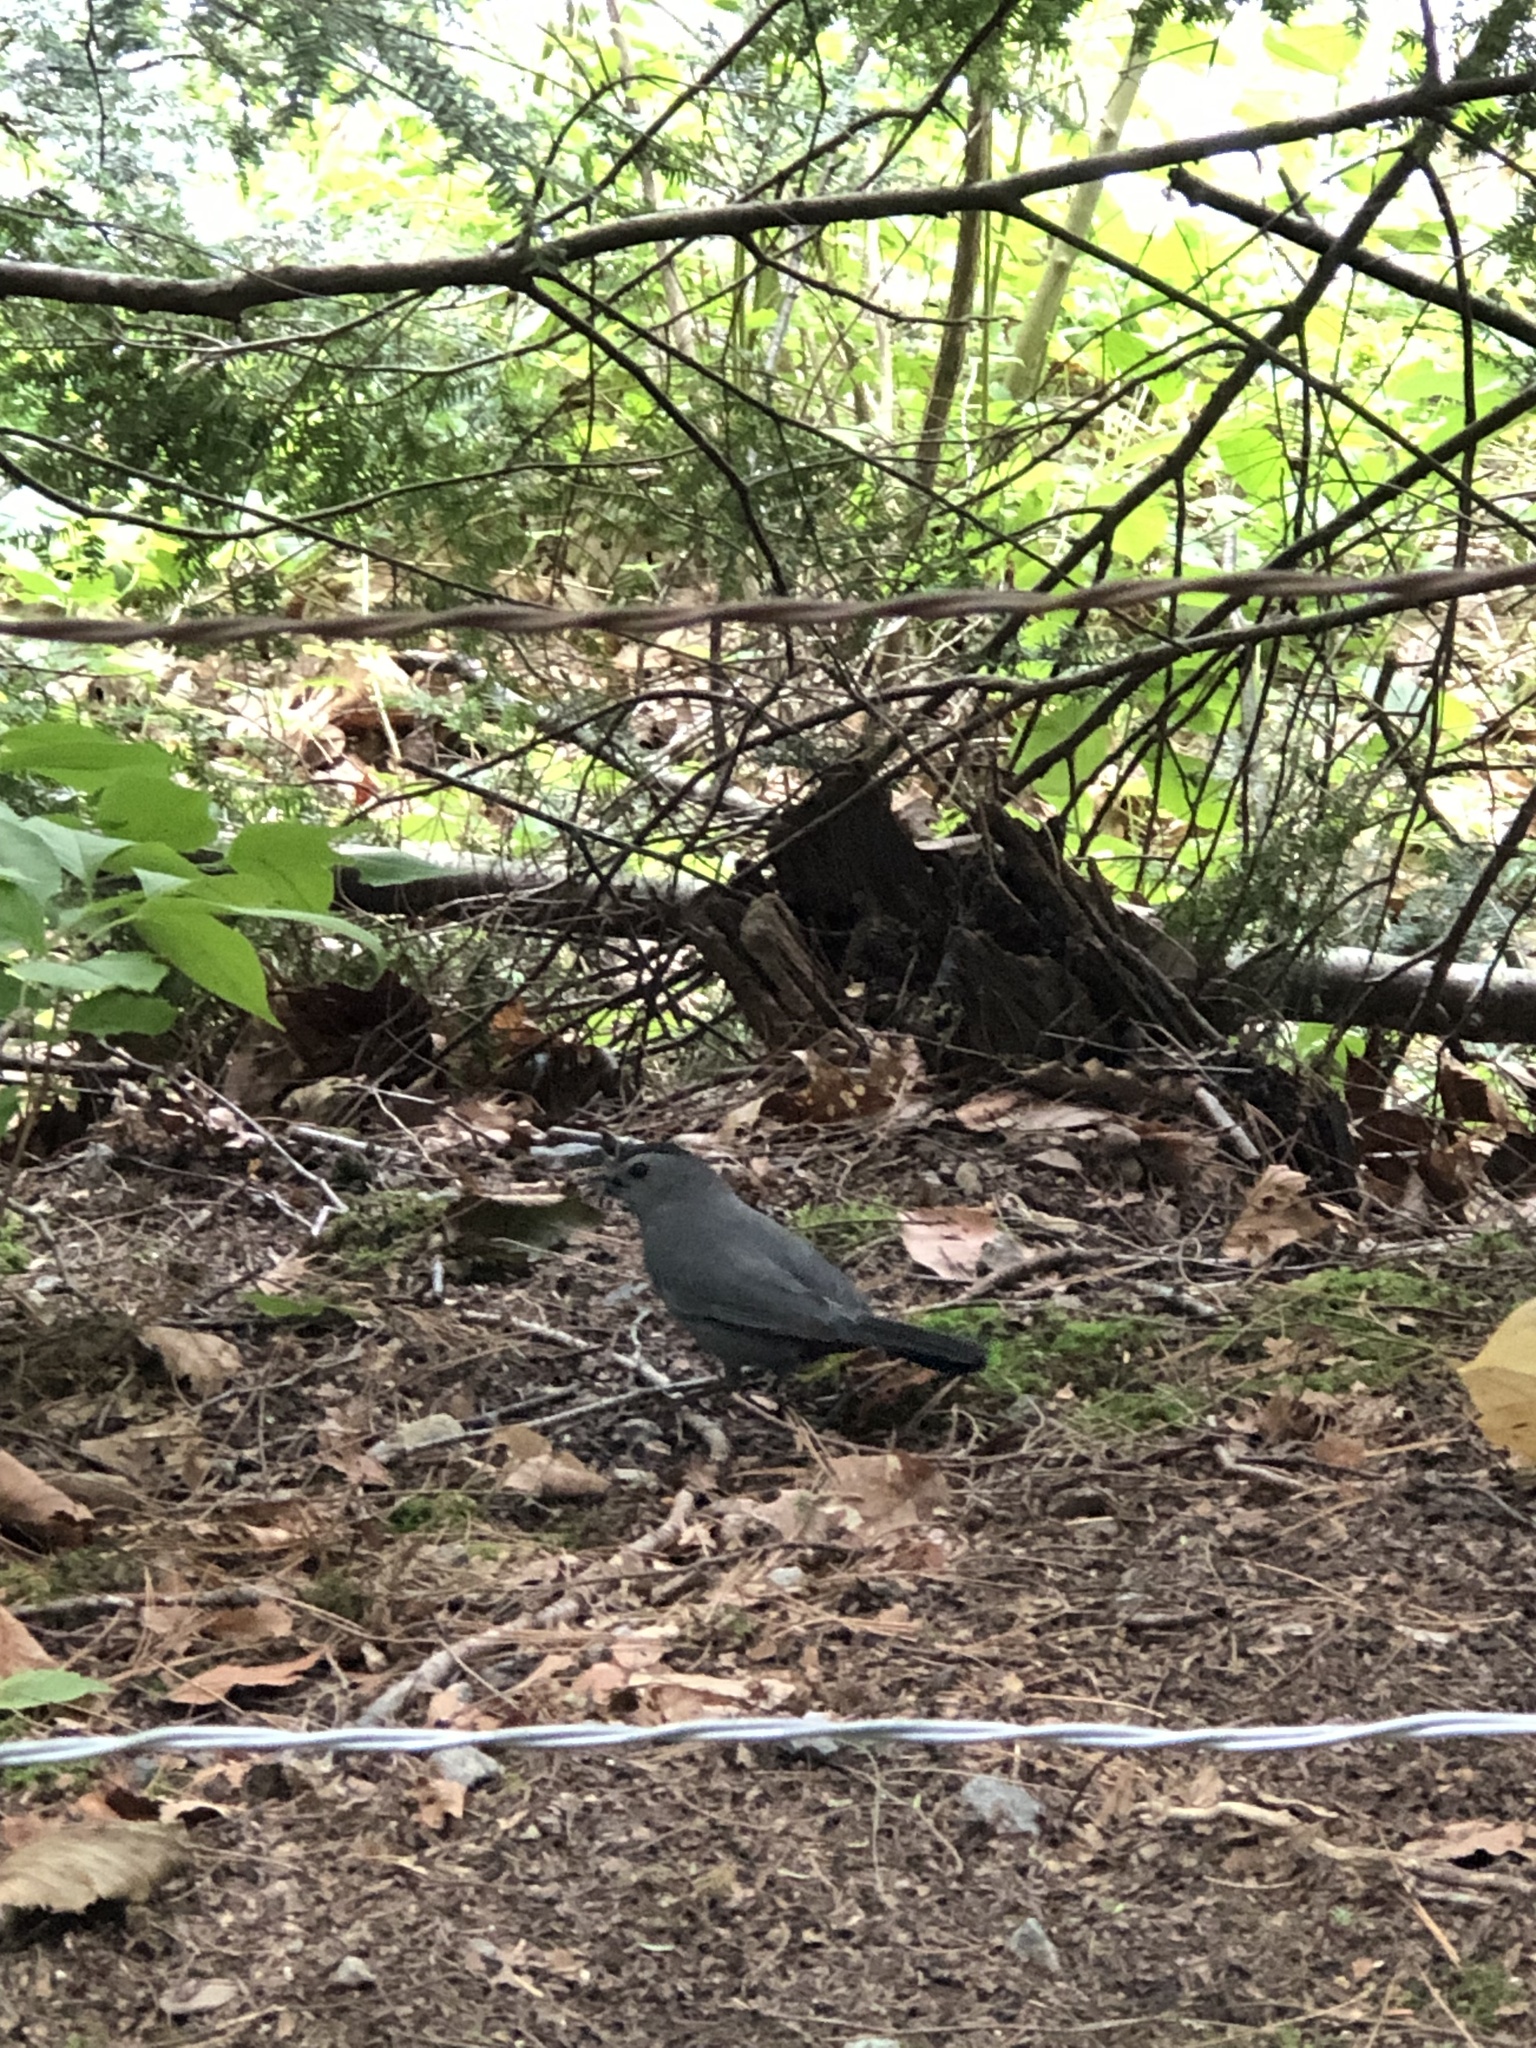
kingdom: Animalia
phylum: Chordata
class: Aves
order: Passeriformes
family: Mimidae
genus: Dumetella
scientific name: Dumetella carolinensis
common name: Gray catbird
